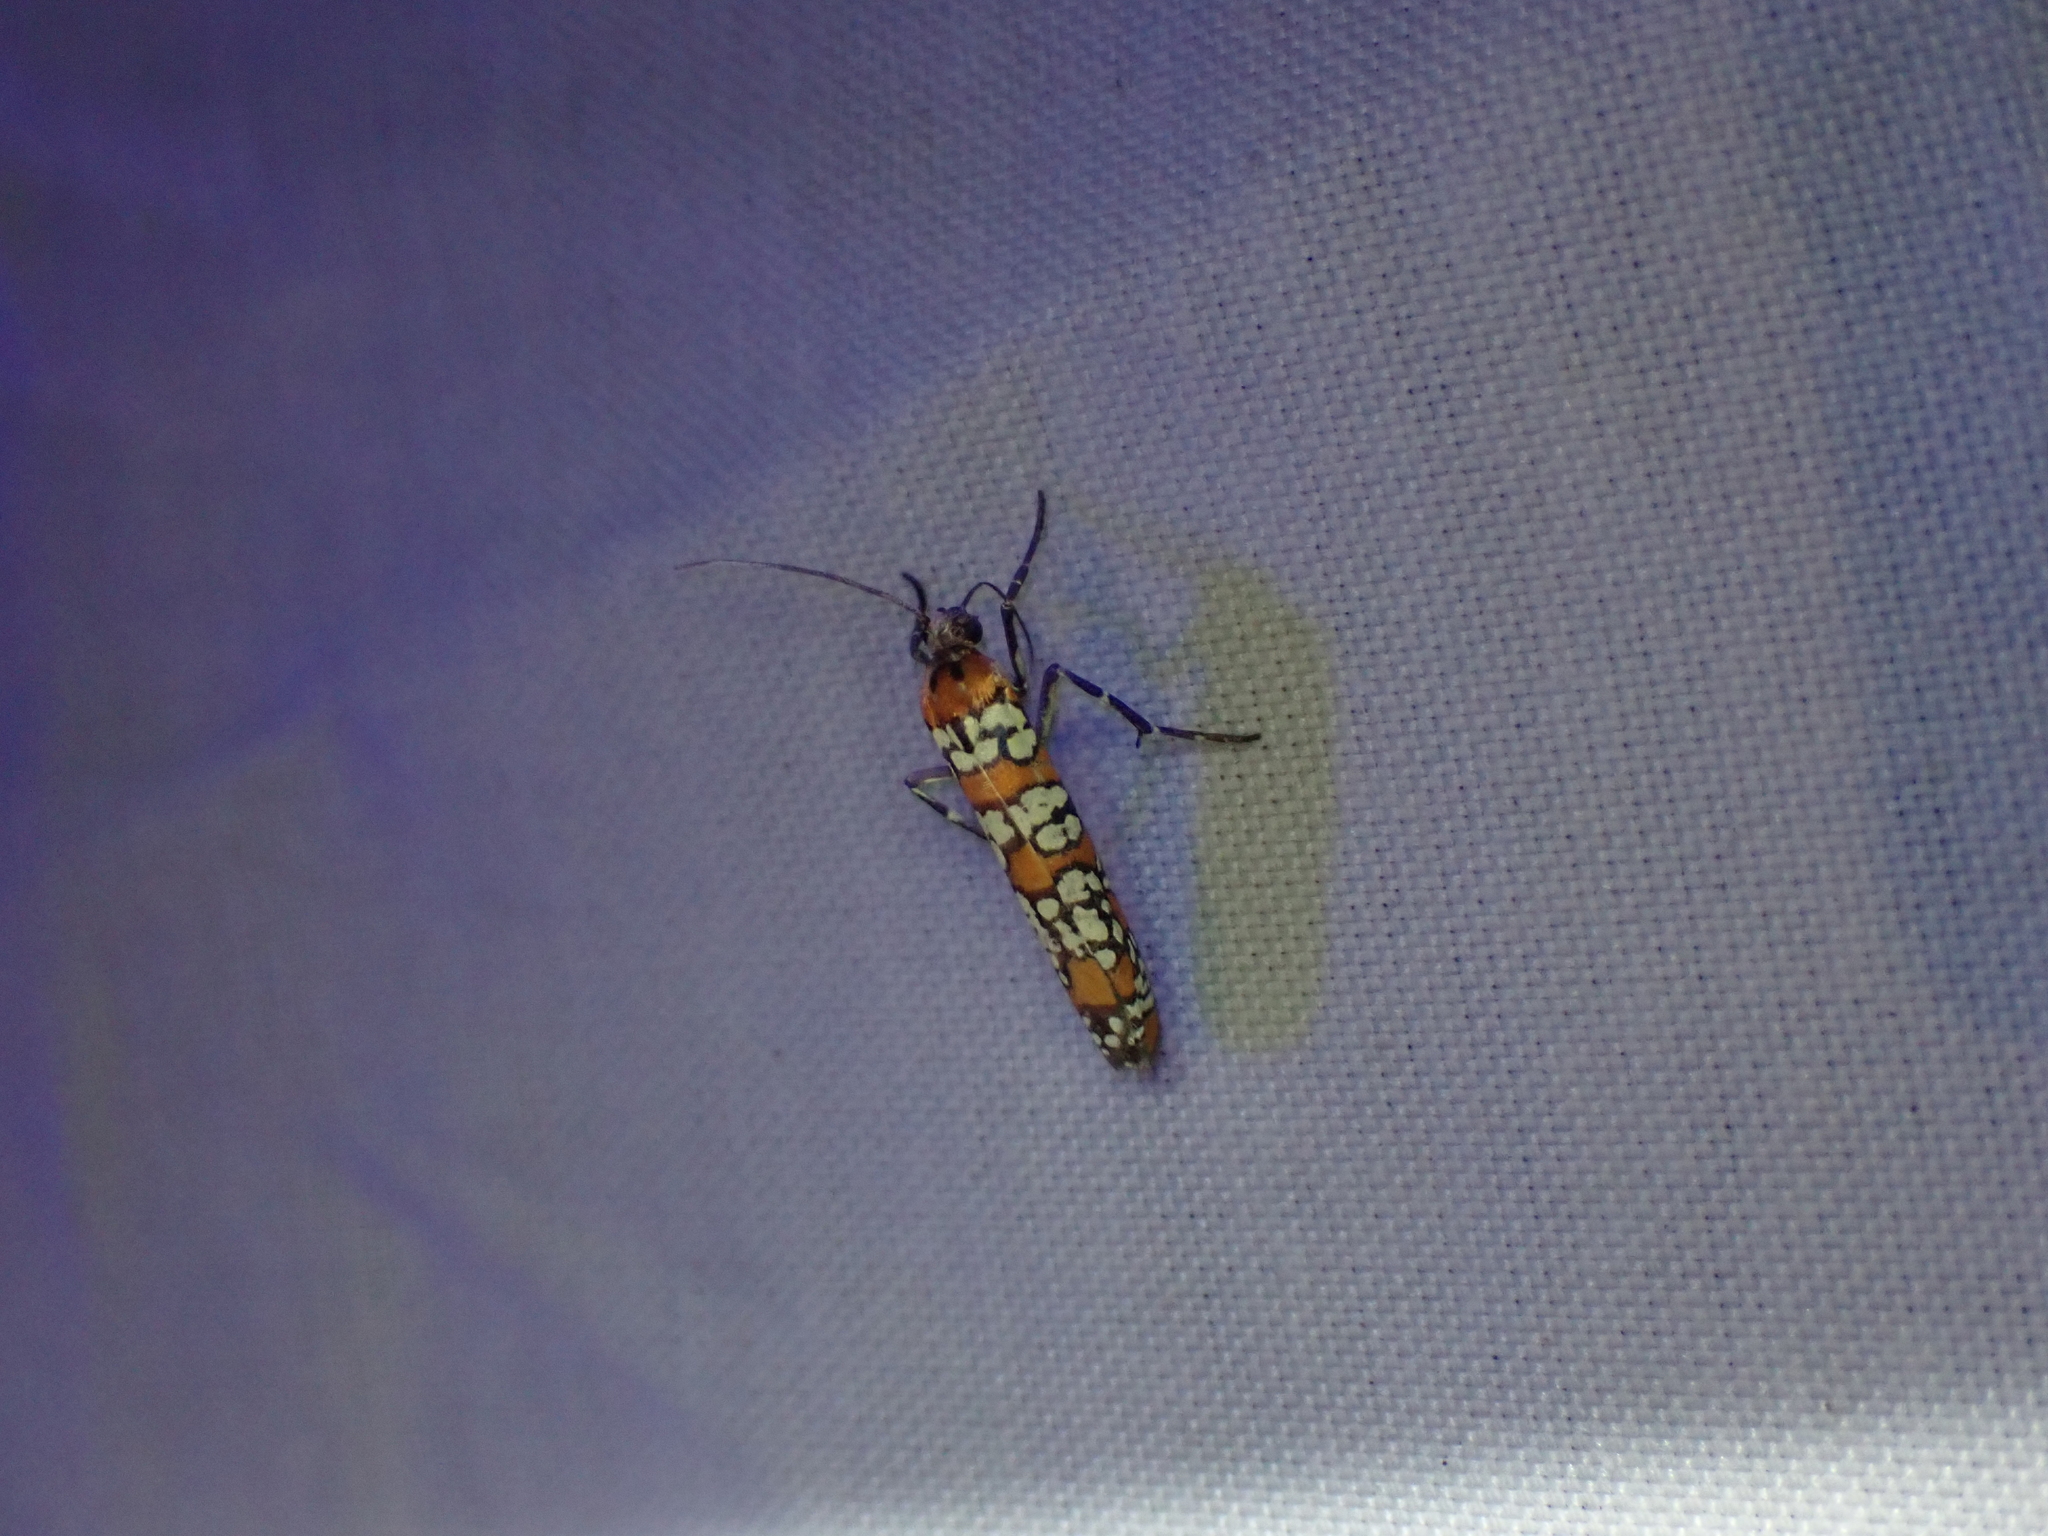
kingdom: Animalia
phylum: Arthropoda
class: Insecta
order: Lepidoptera
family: Attevidae
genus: Atteva
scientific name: Atteva punctella
